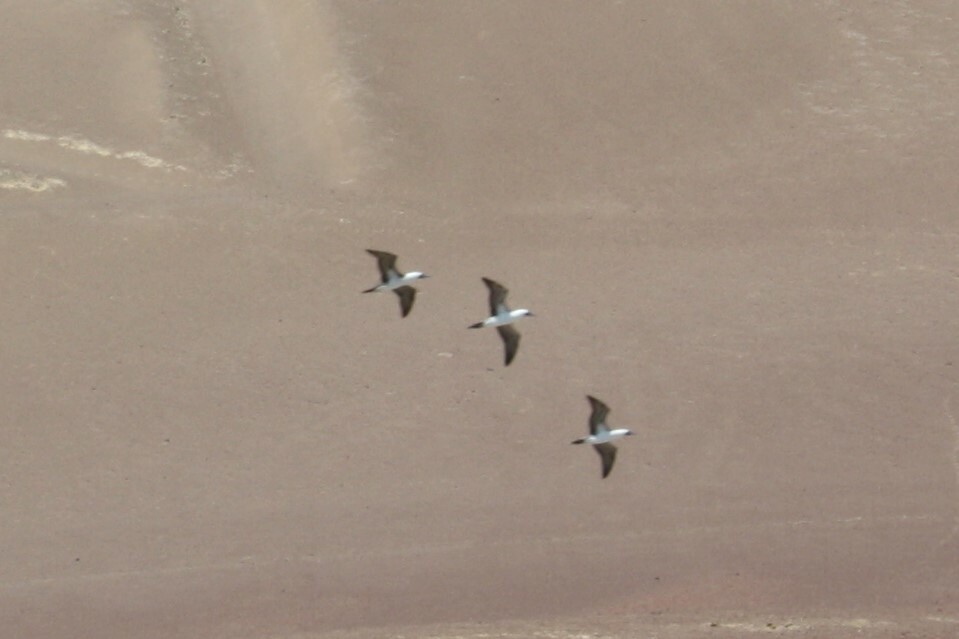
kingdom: Animalia
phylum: Chordata
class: Aves
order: Suliformes
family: Sulidae
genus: Sula
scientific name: Sula variegata
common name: Peruvian booby
